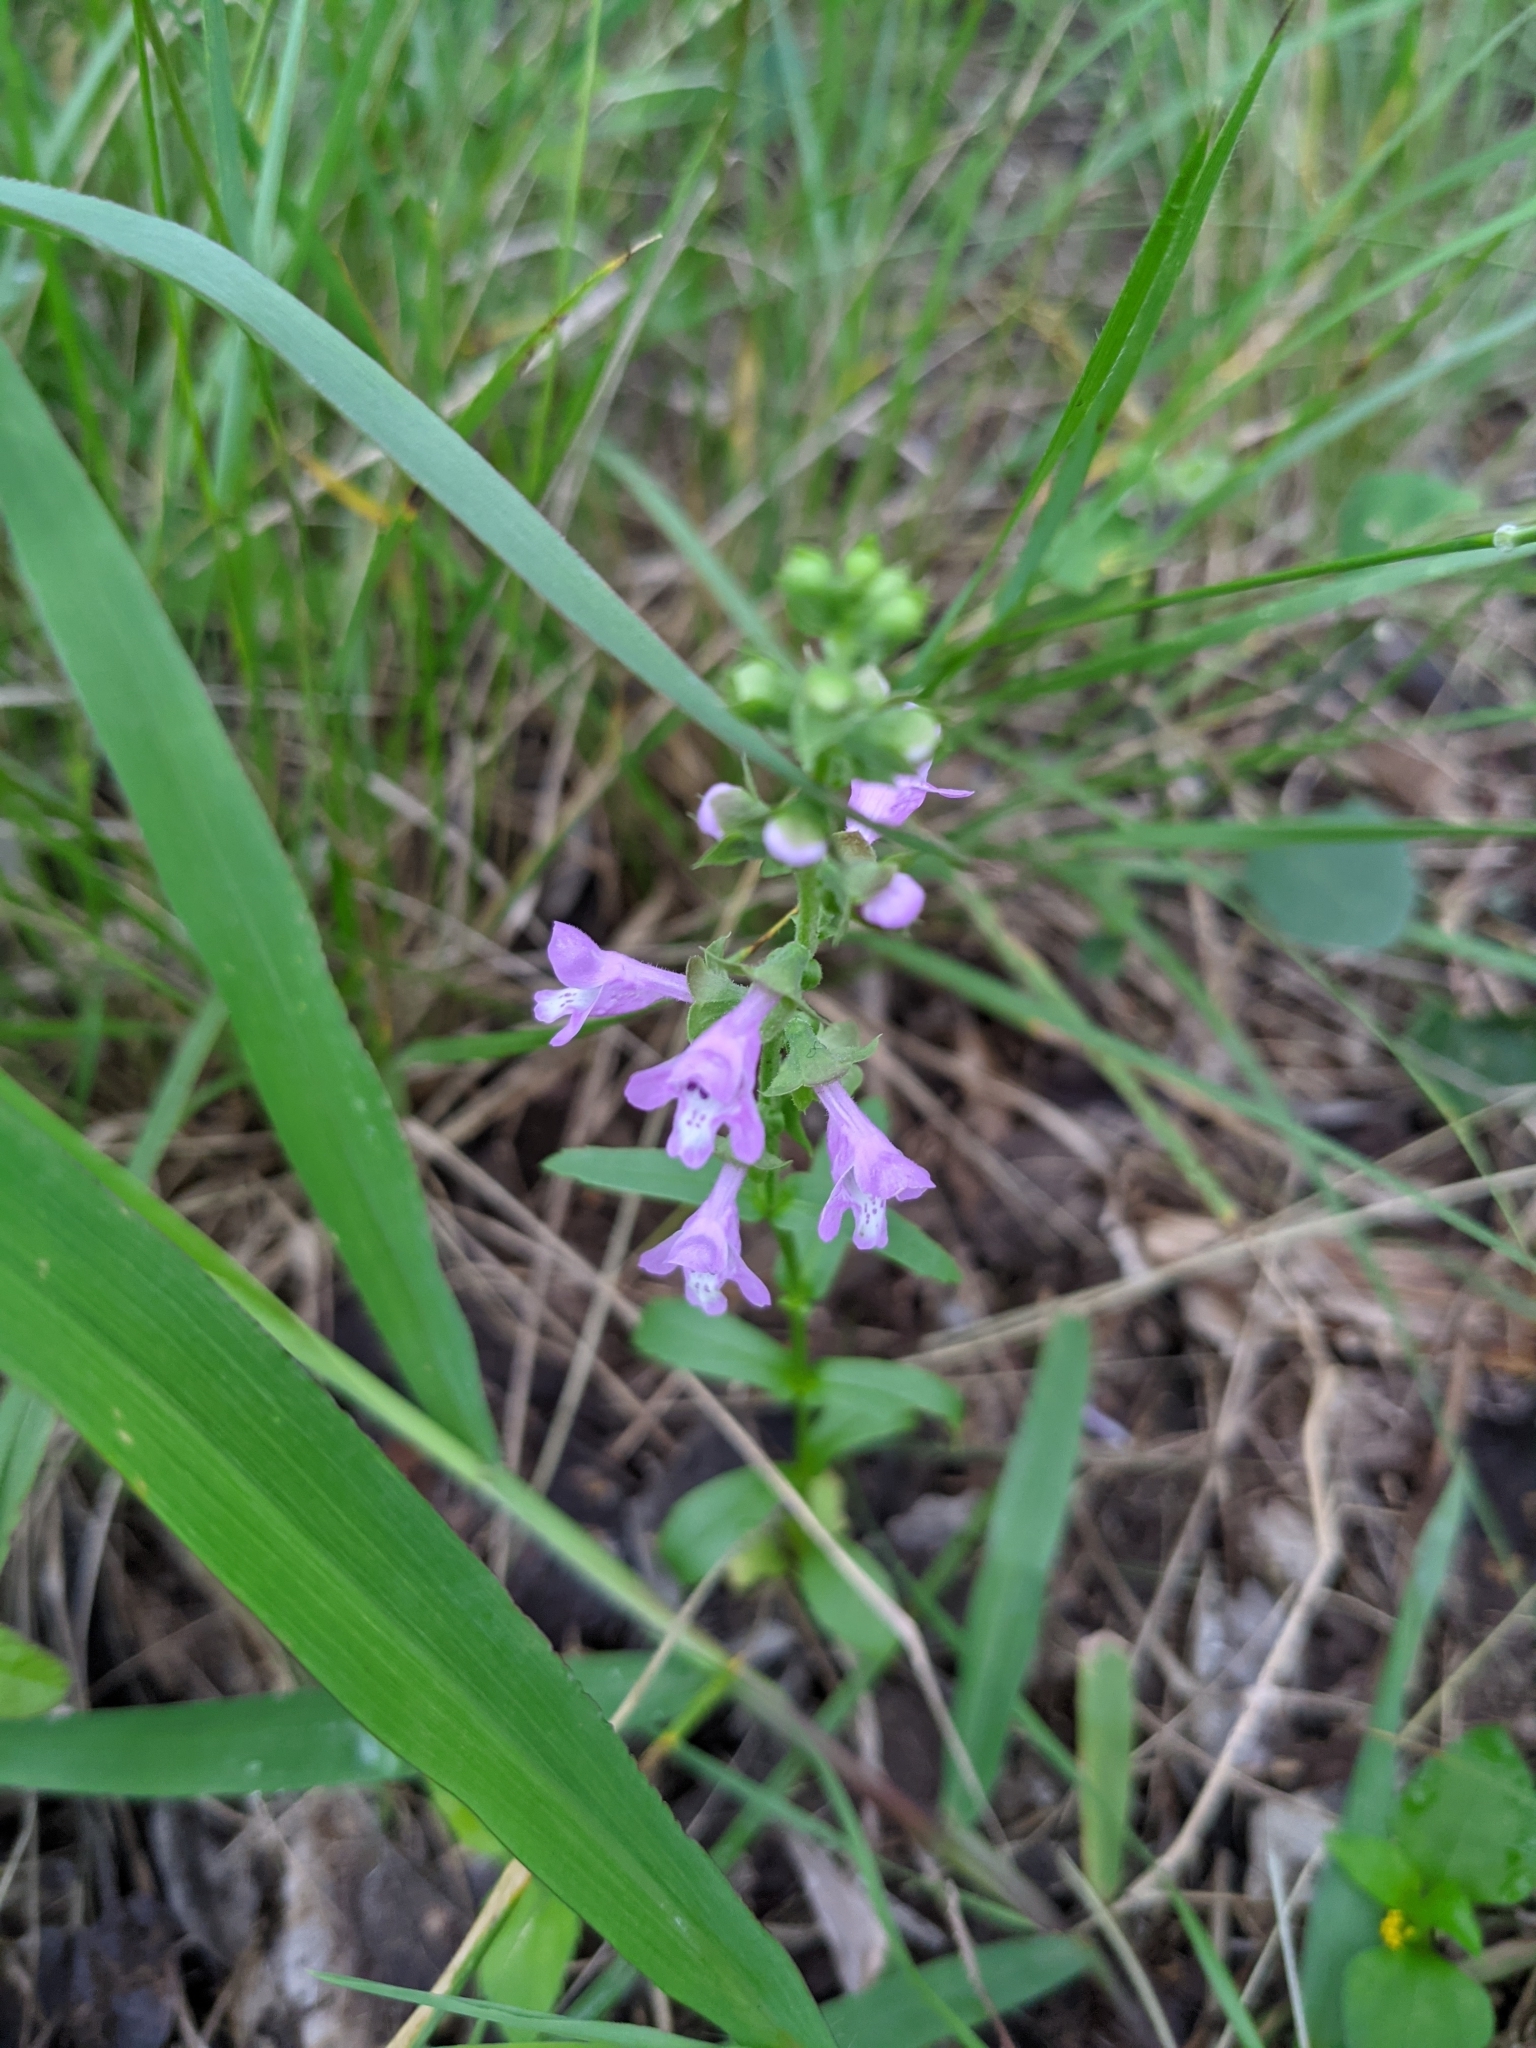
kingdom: Plantae
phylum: Tracheophyta
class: Magnoliopsida
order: Lamiales
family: Lamiaceae
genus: Warnockia
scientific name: Warnockia scutellarioides
